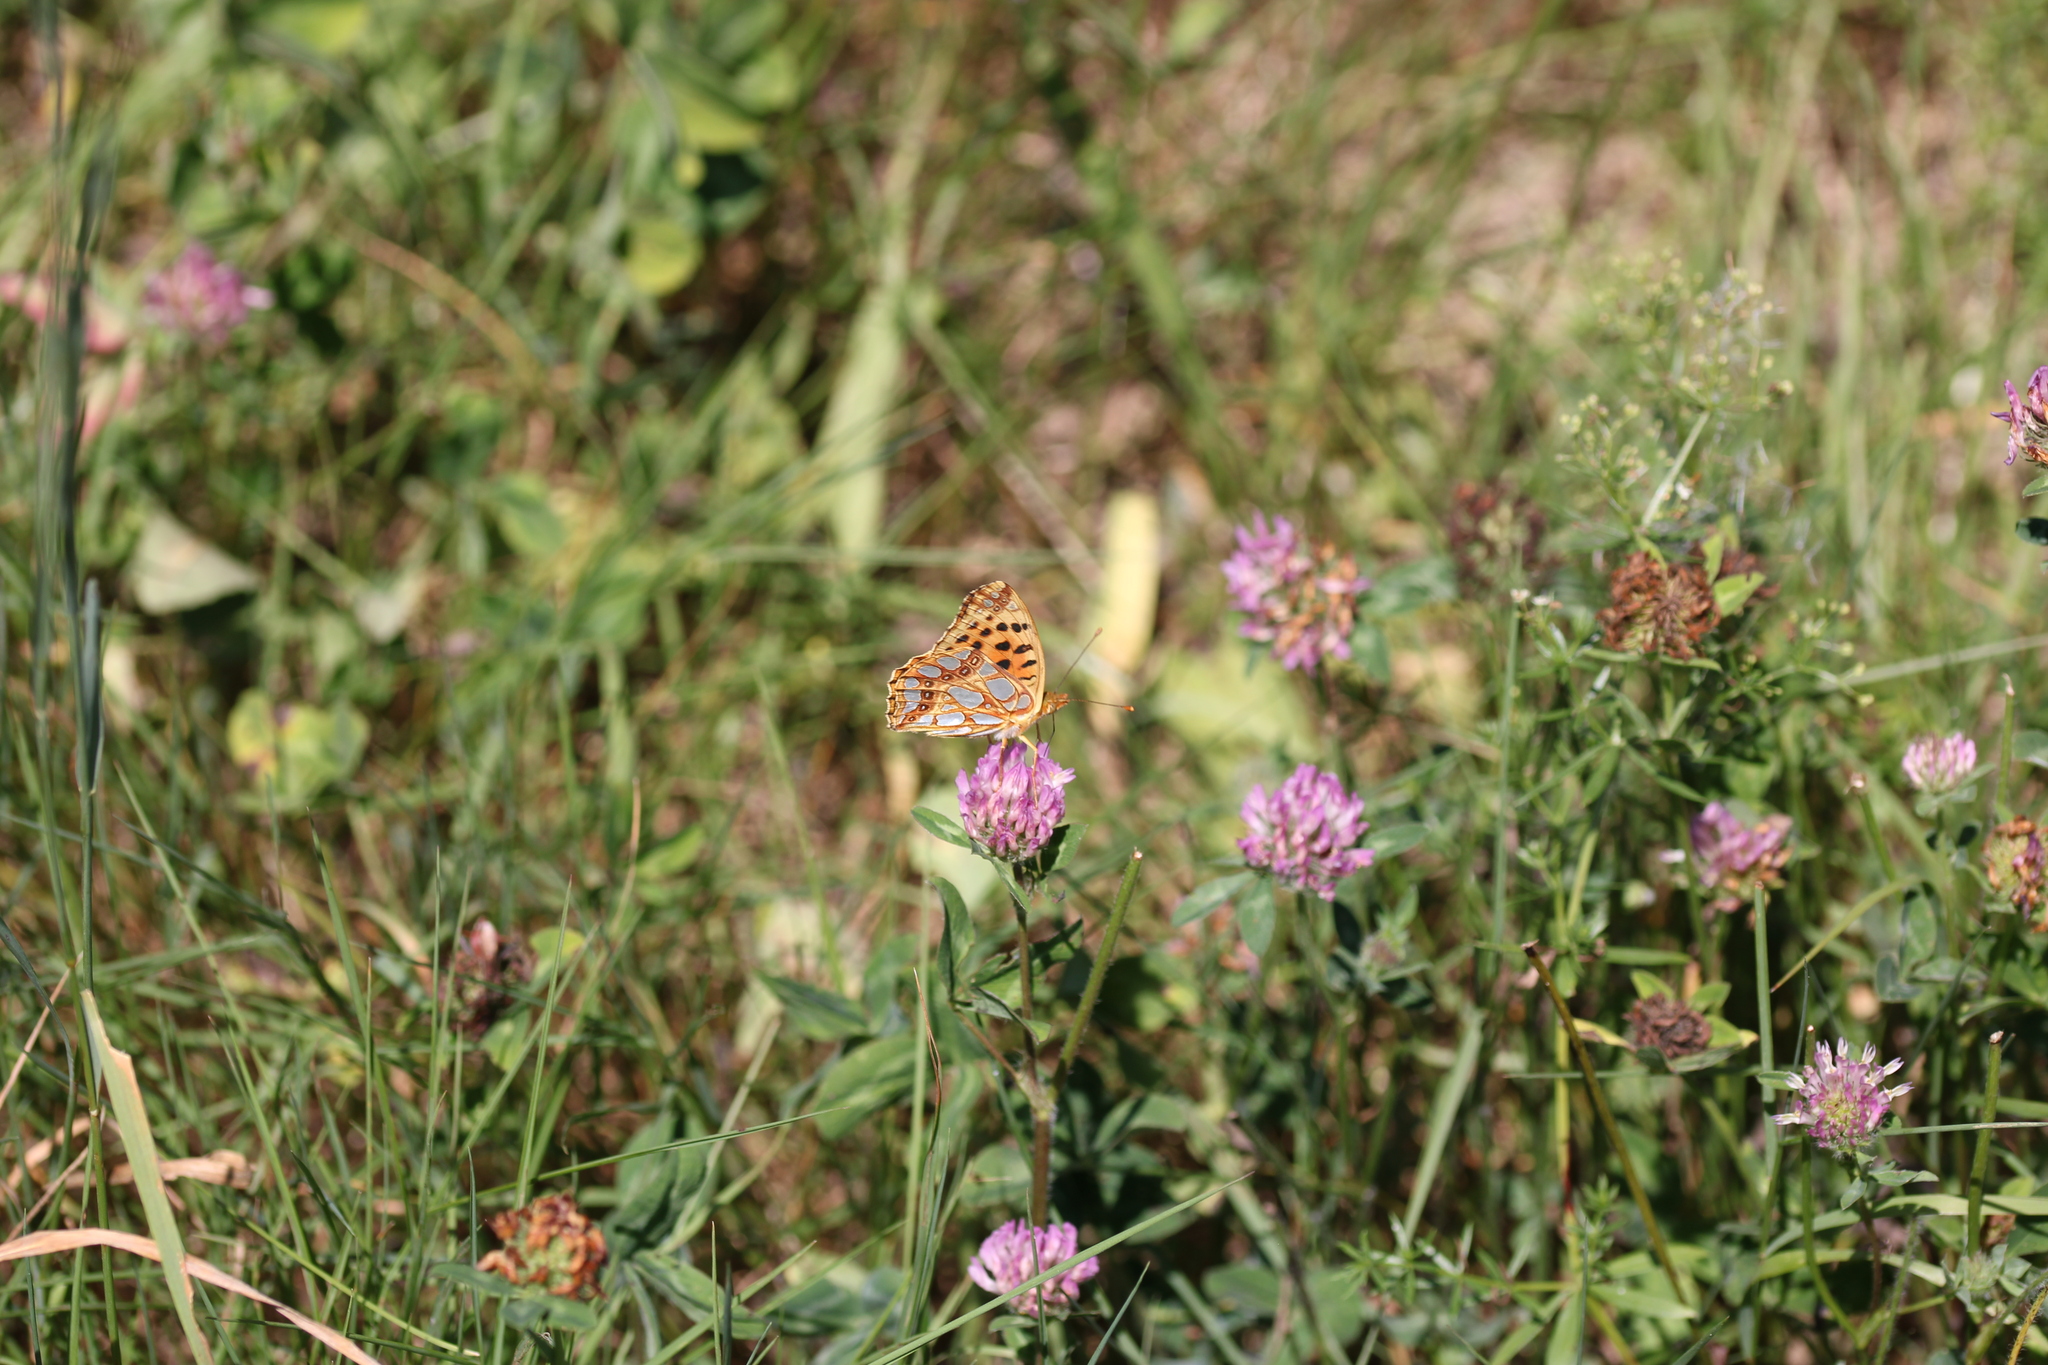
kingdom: Animalia
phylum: Arthropoda
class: Insecta
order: Lepidoptera
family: Nymphalidae
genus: Issoria
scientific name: Issoria lathonia
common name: Queen of spain fritillary
